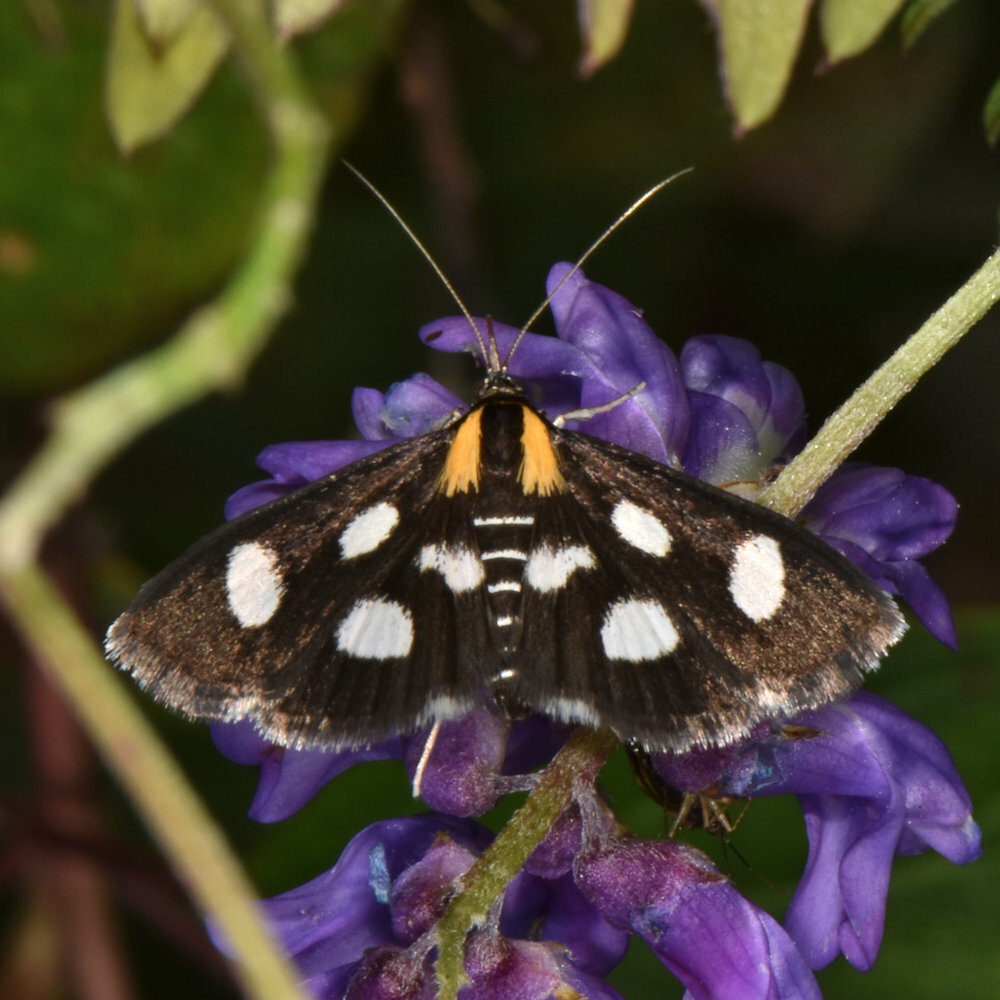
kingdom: Animalia
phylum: Arthropoda
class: Insecta
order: Lepidoptera
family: Crambidae
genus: Anania
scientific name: Anania funebris
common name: White-spotted sable moth
